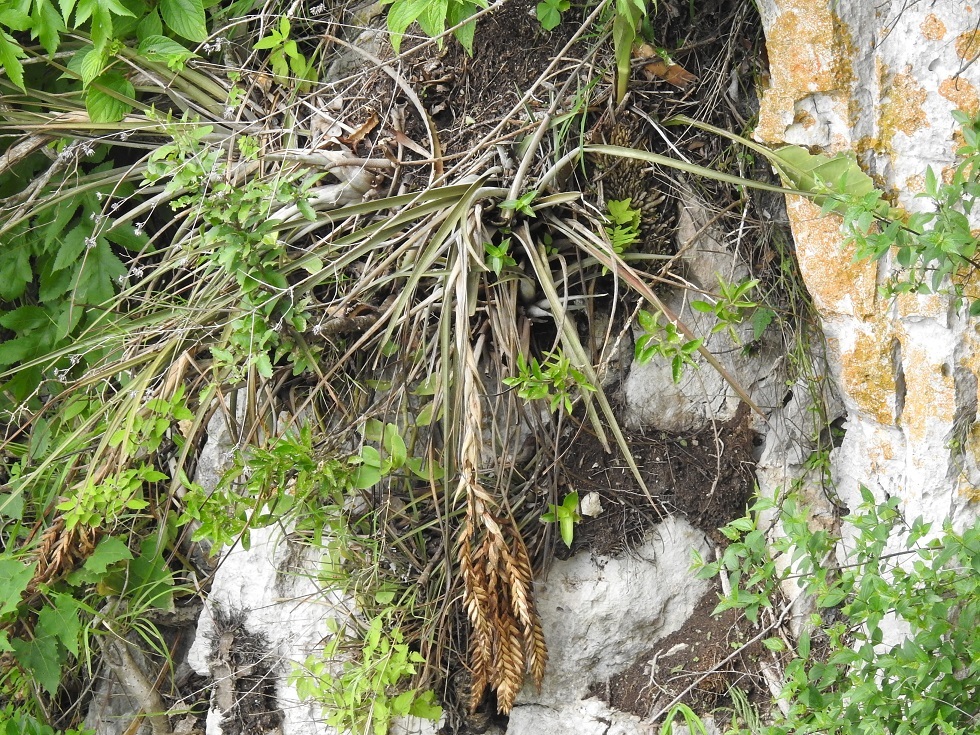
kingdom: Plantae
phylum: Tracheophyta
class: Liliopsida
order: Poales
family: Bromeliaceae
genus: Tillandsia
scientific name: Tillandsia fasciculata
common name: Giant airplant
